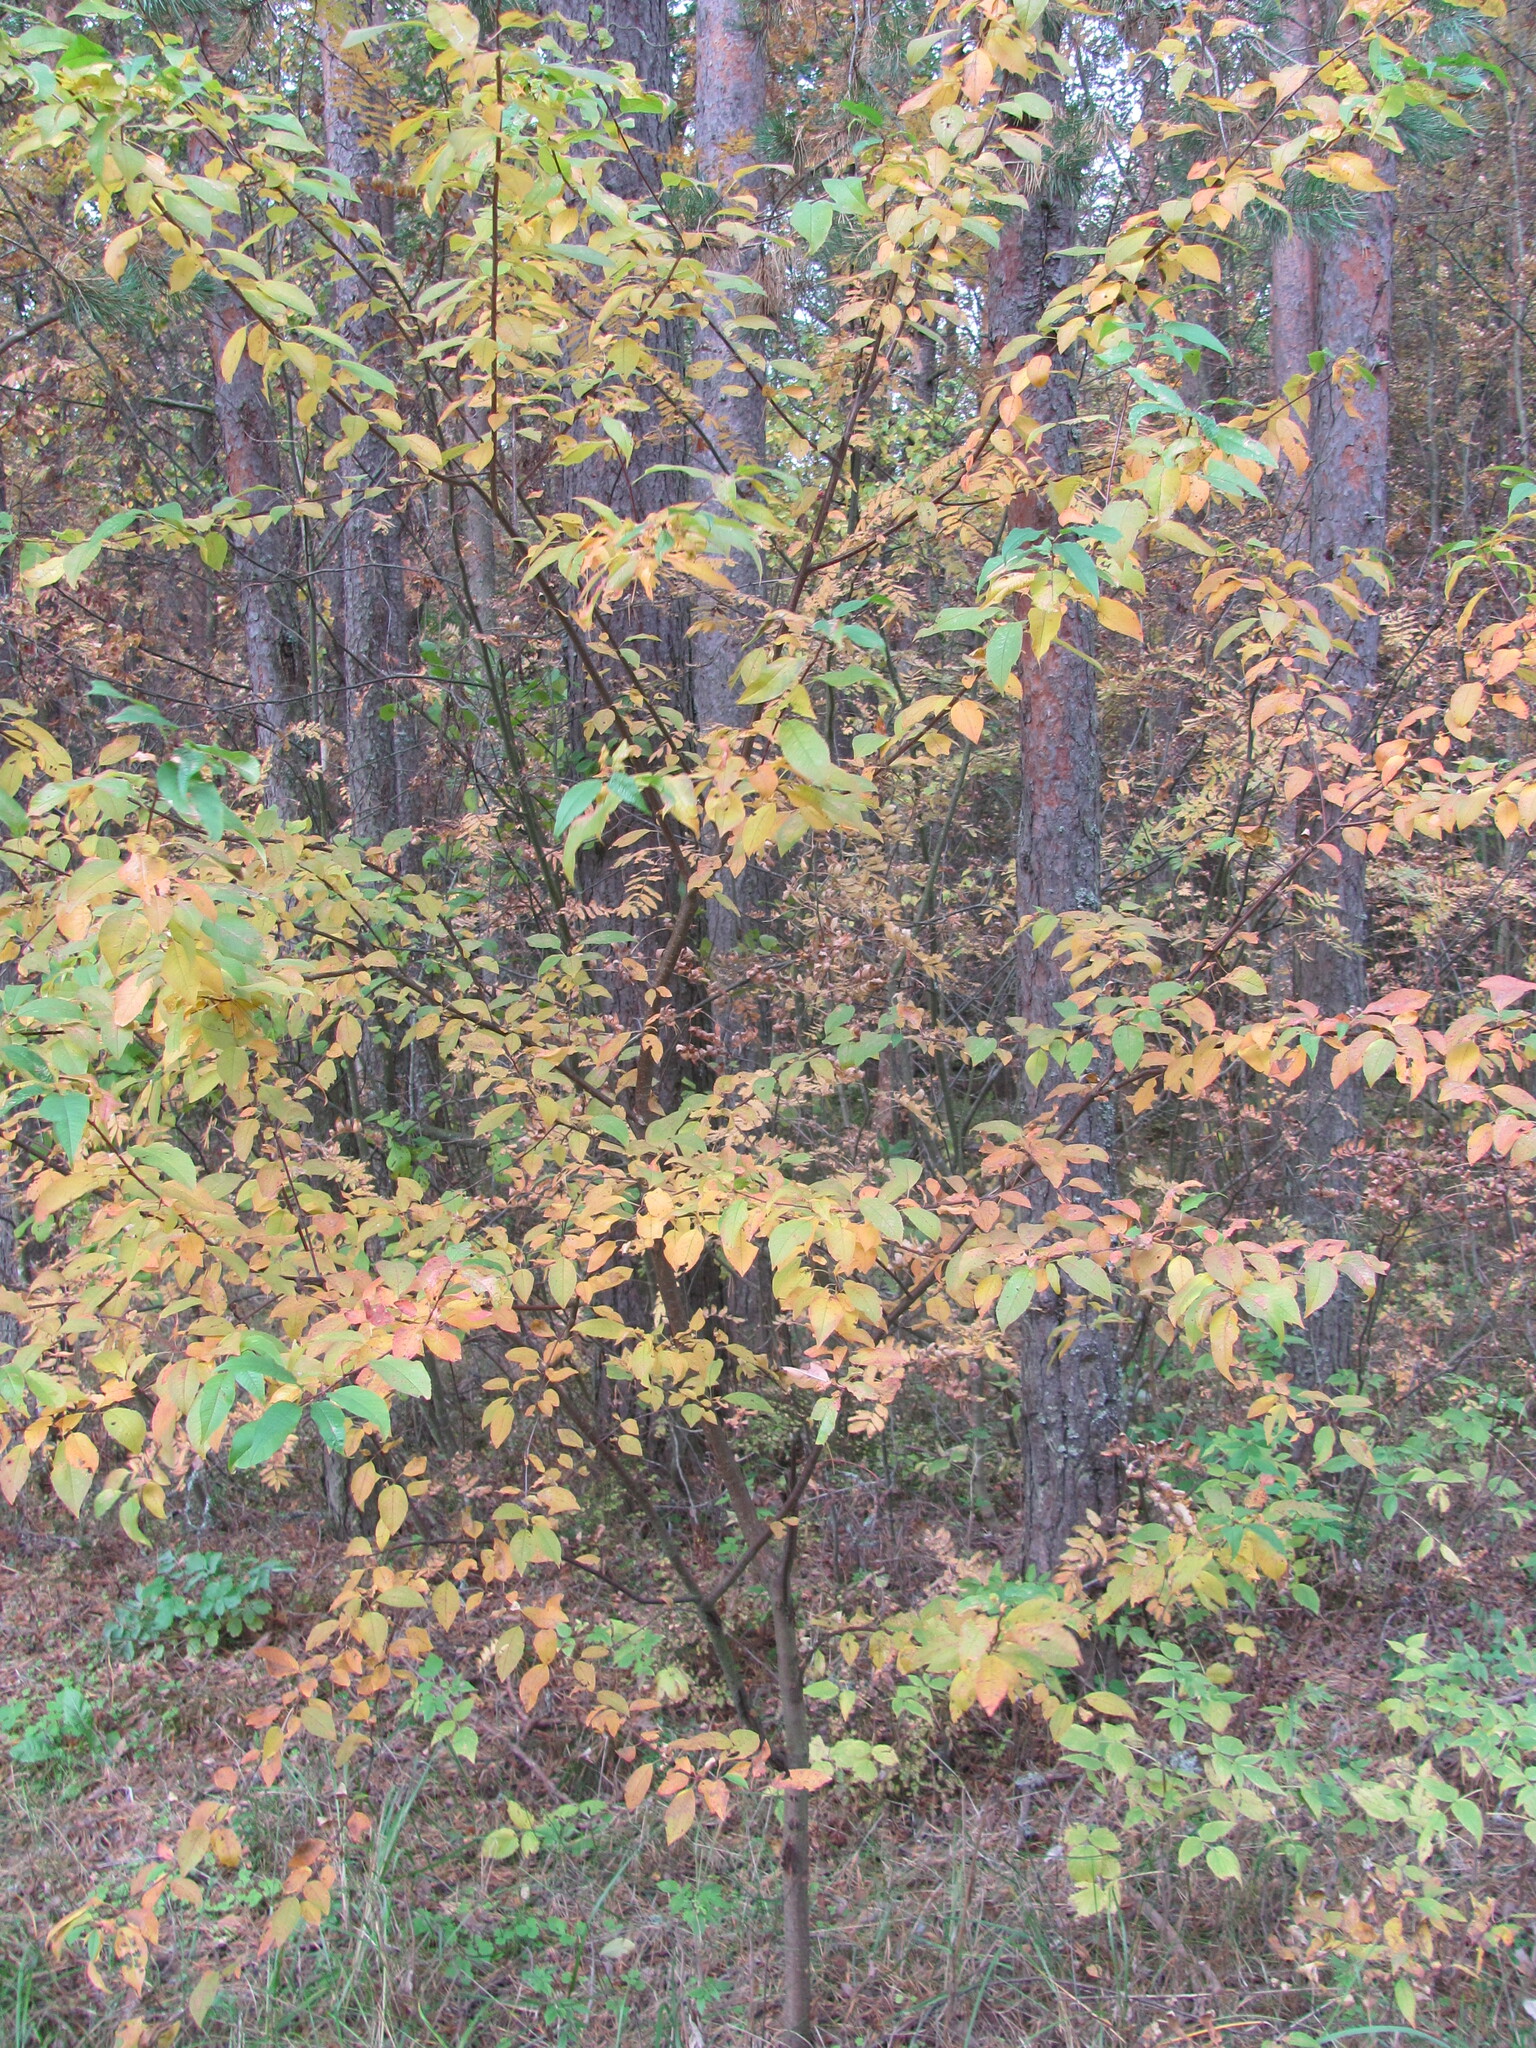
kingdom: Plantae
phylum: Tracheophyta
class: Magnoliopsida
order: Rosales
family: Rosaceae
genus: Prunus
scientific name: Prunus pensylvanica
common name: Pin cherry
